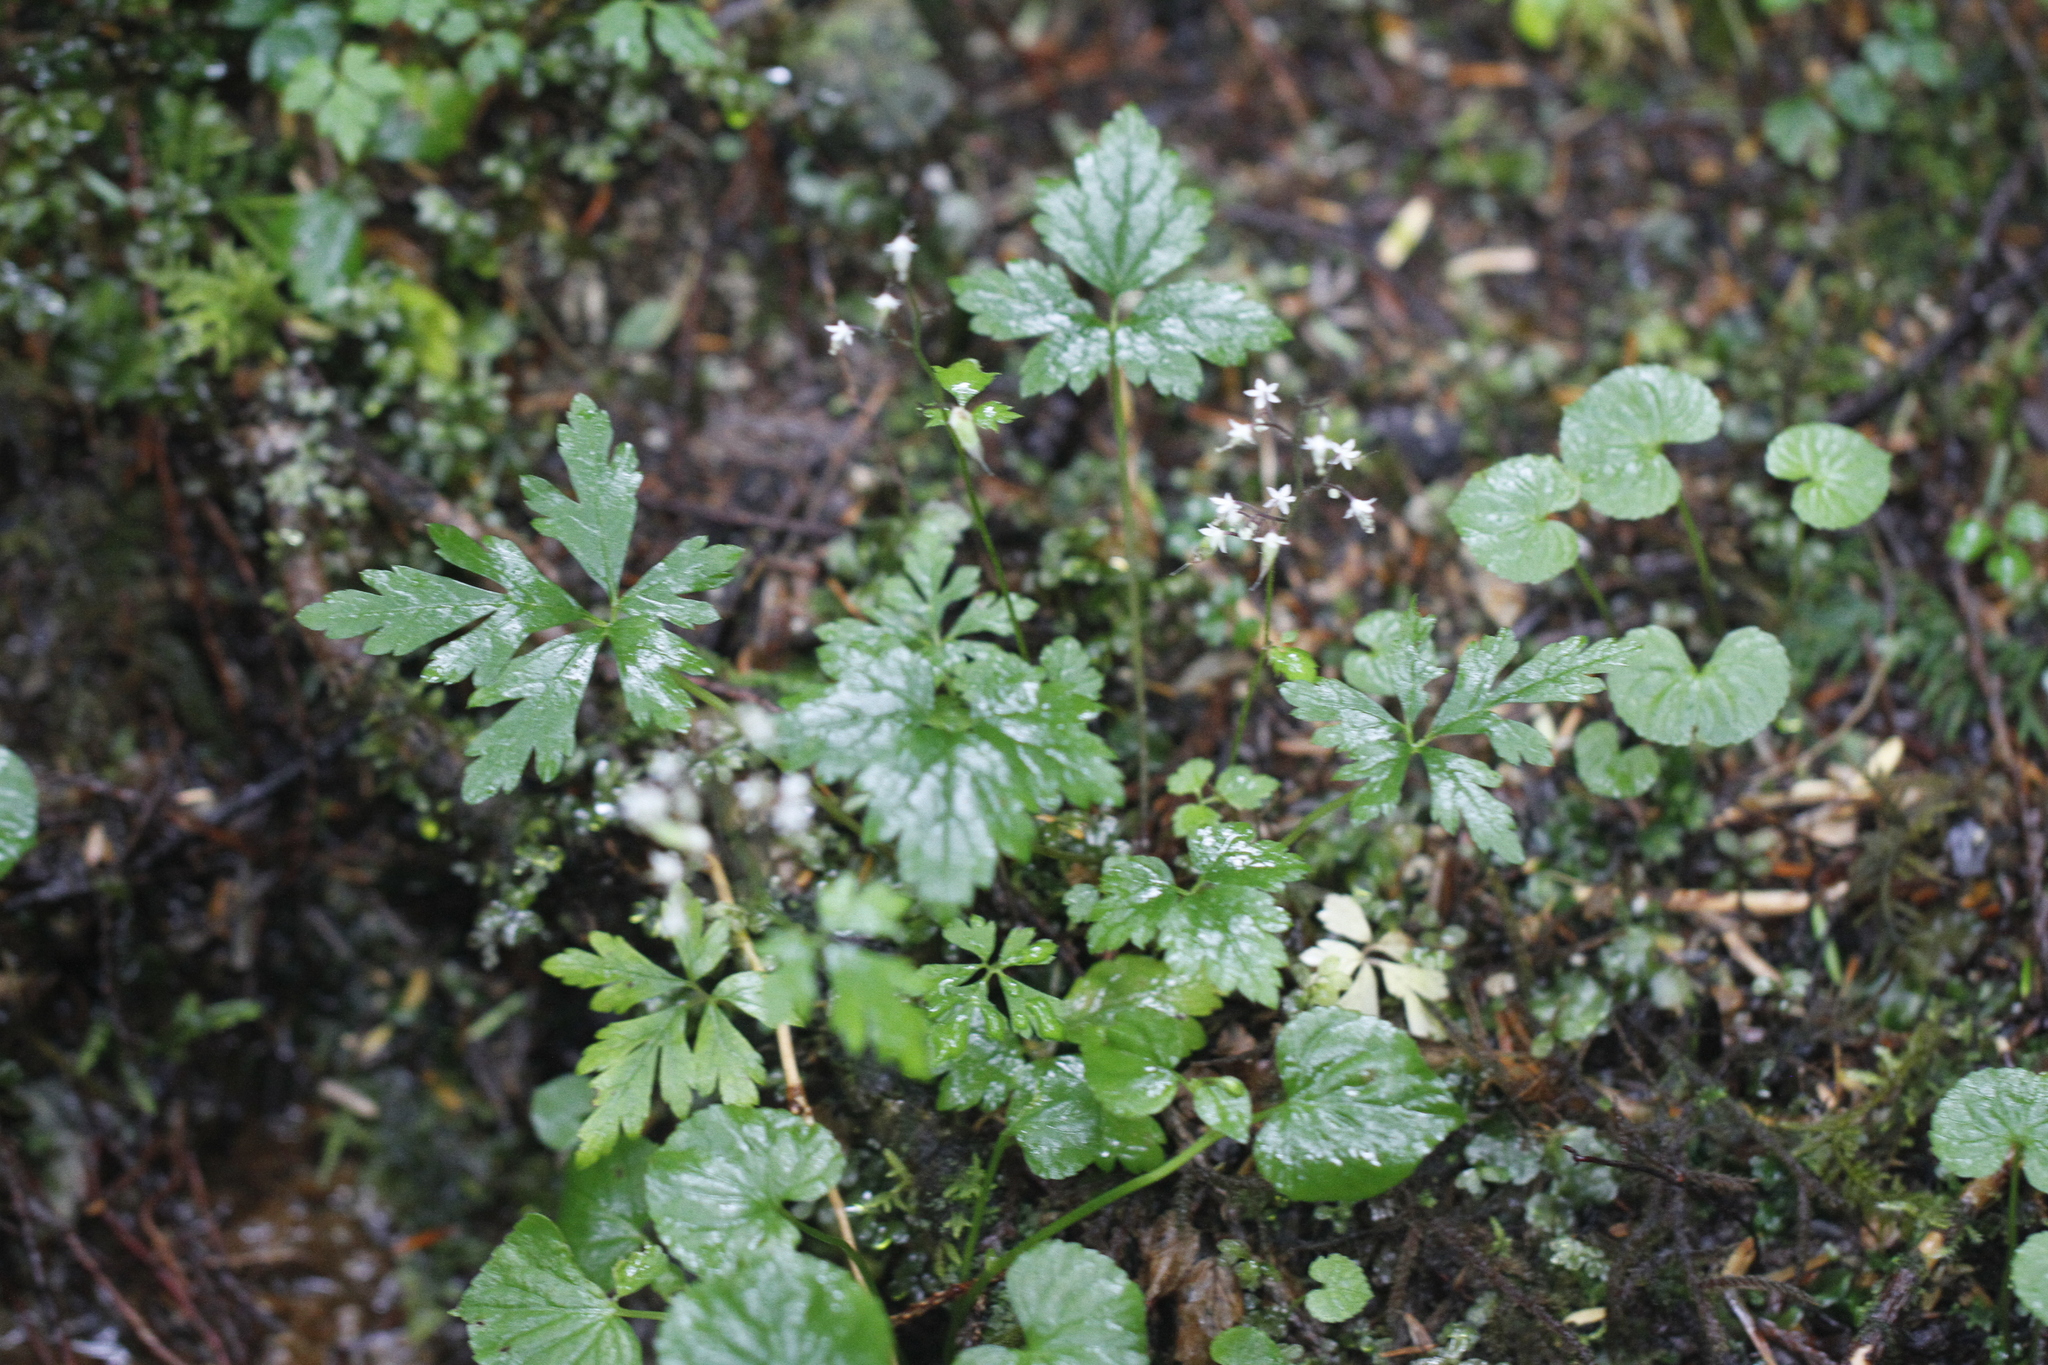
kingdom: Plantae
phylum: Tracheophyta
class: Magnoliopsida
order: Saxifragales
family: Saxifragaceae
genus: Tiarella
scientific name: Tiarella trifoliata
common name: Sugar-scoop
